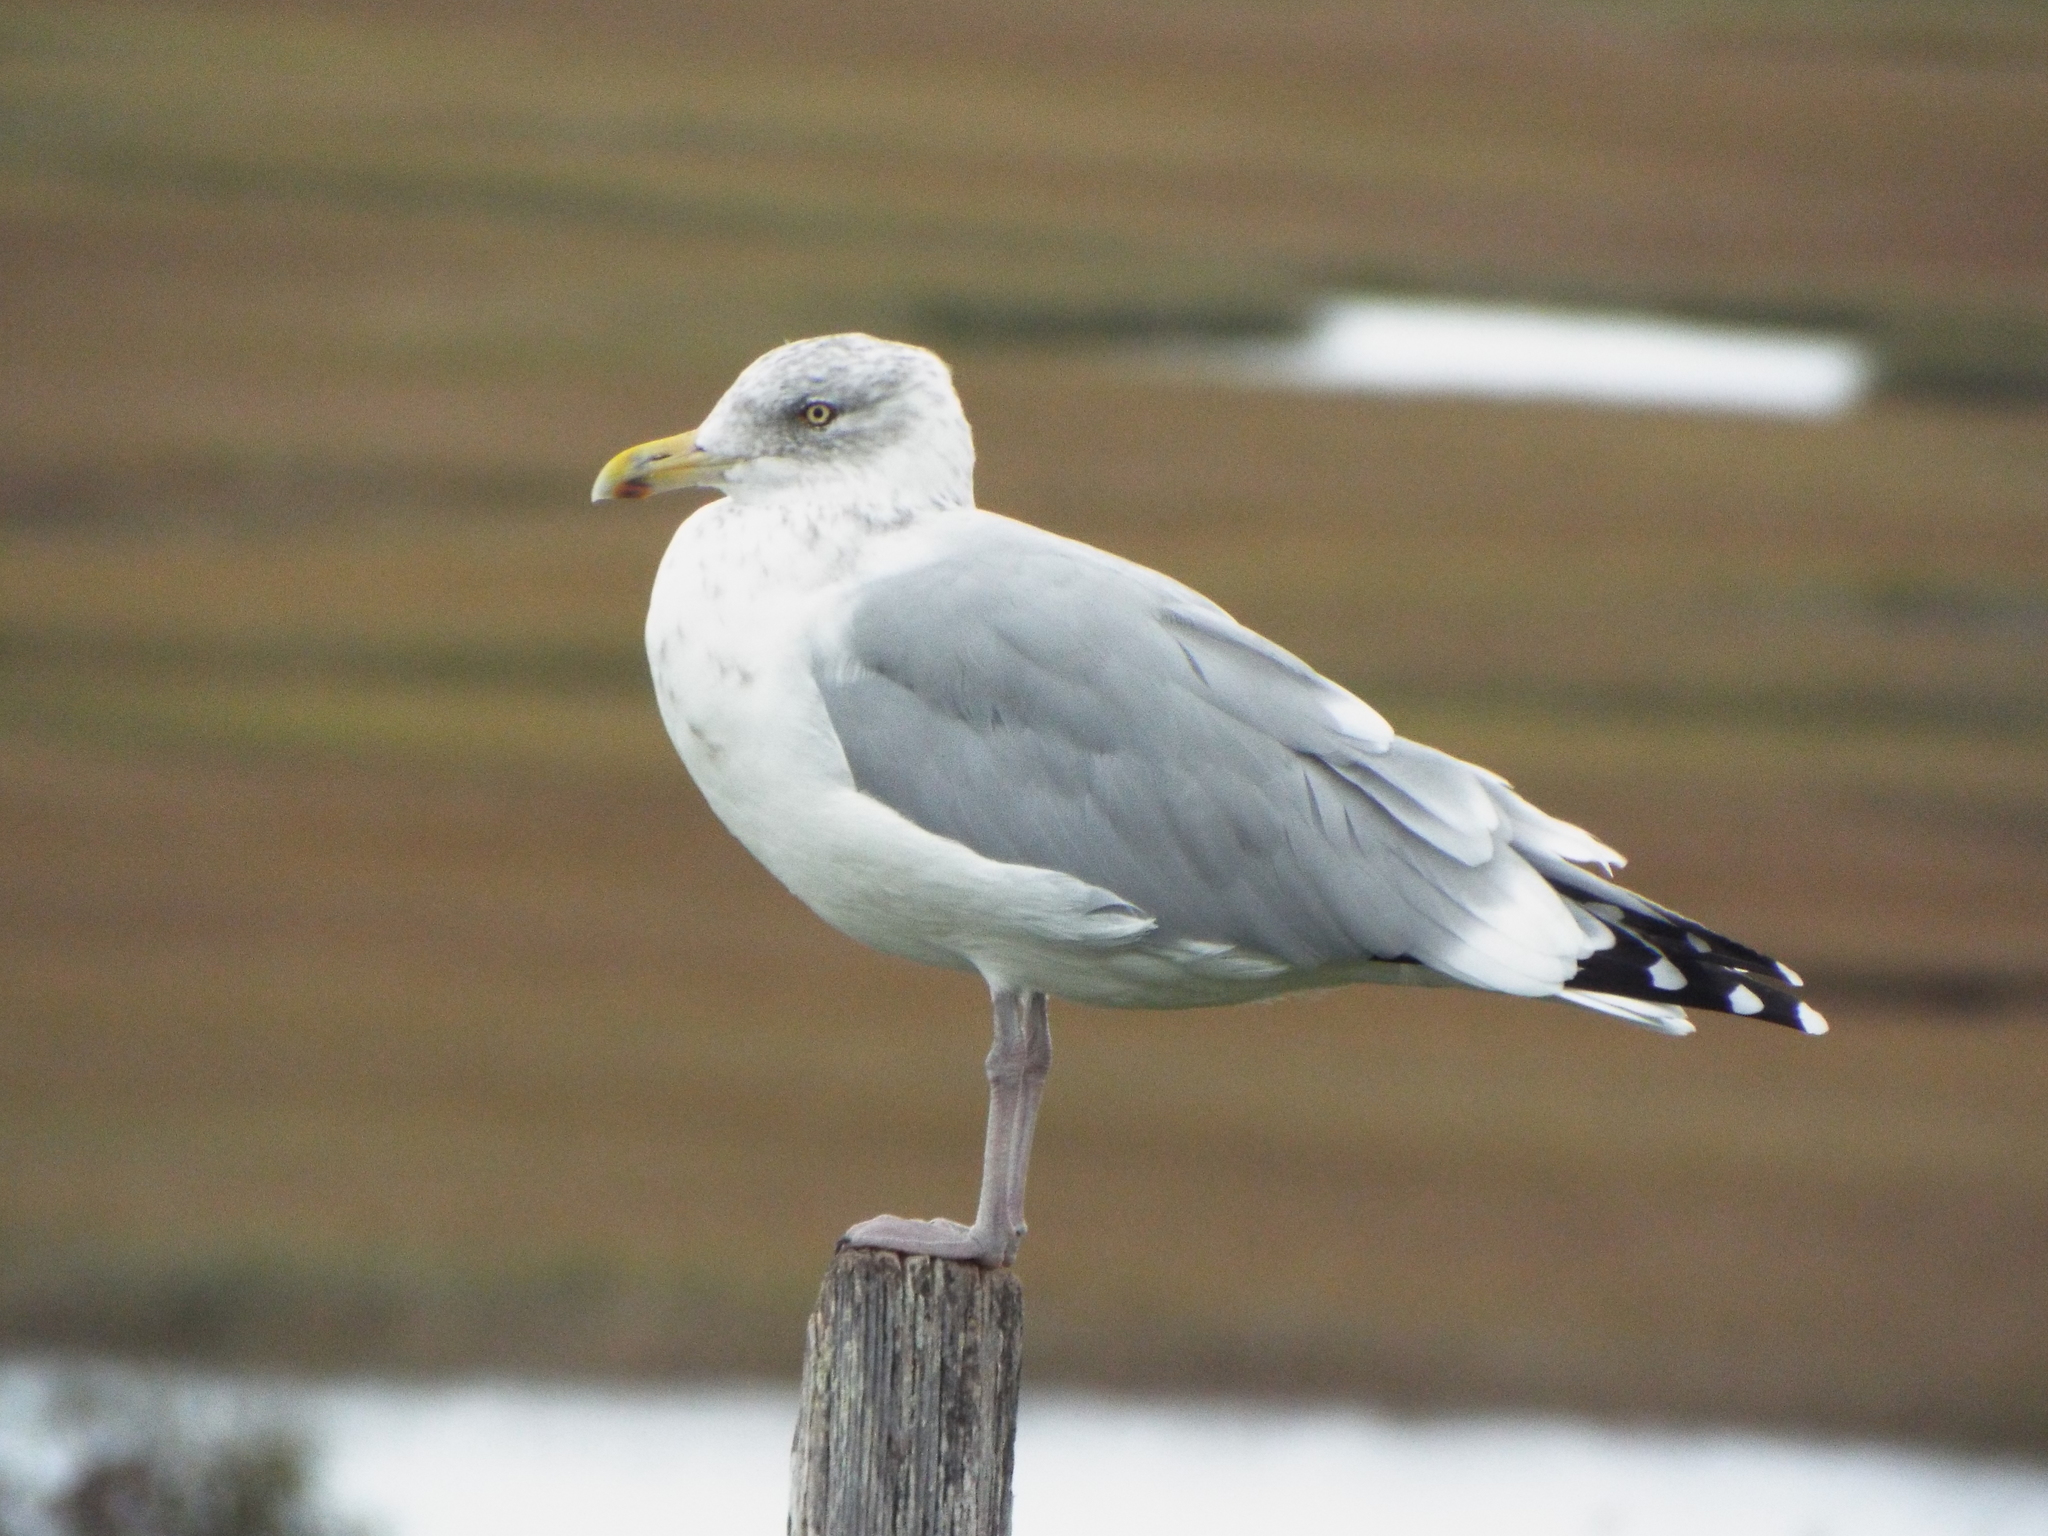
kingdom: Animalia
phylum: Chordata
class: Aves
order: Charadriiformes
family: Laridae
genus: Larus
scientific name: Larus argentatus
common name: Herring gull
